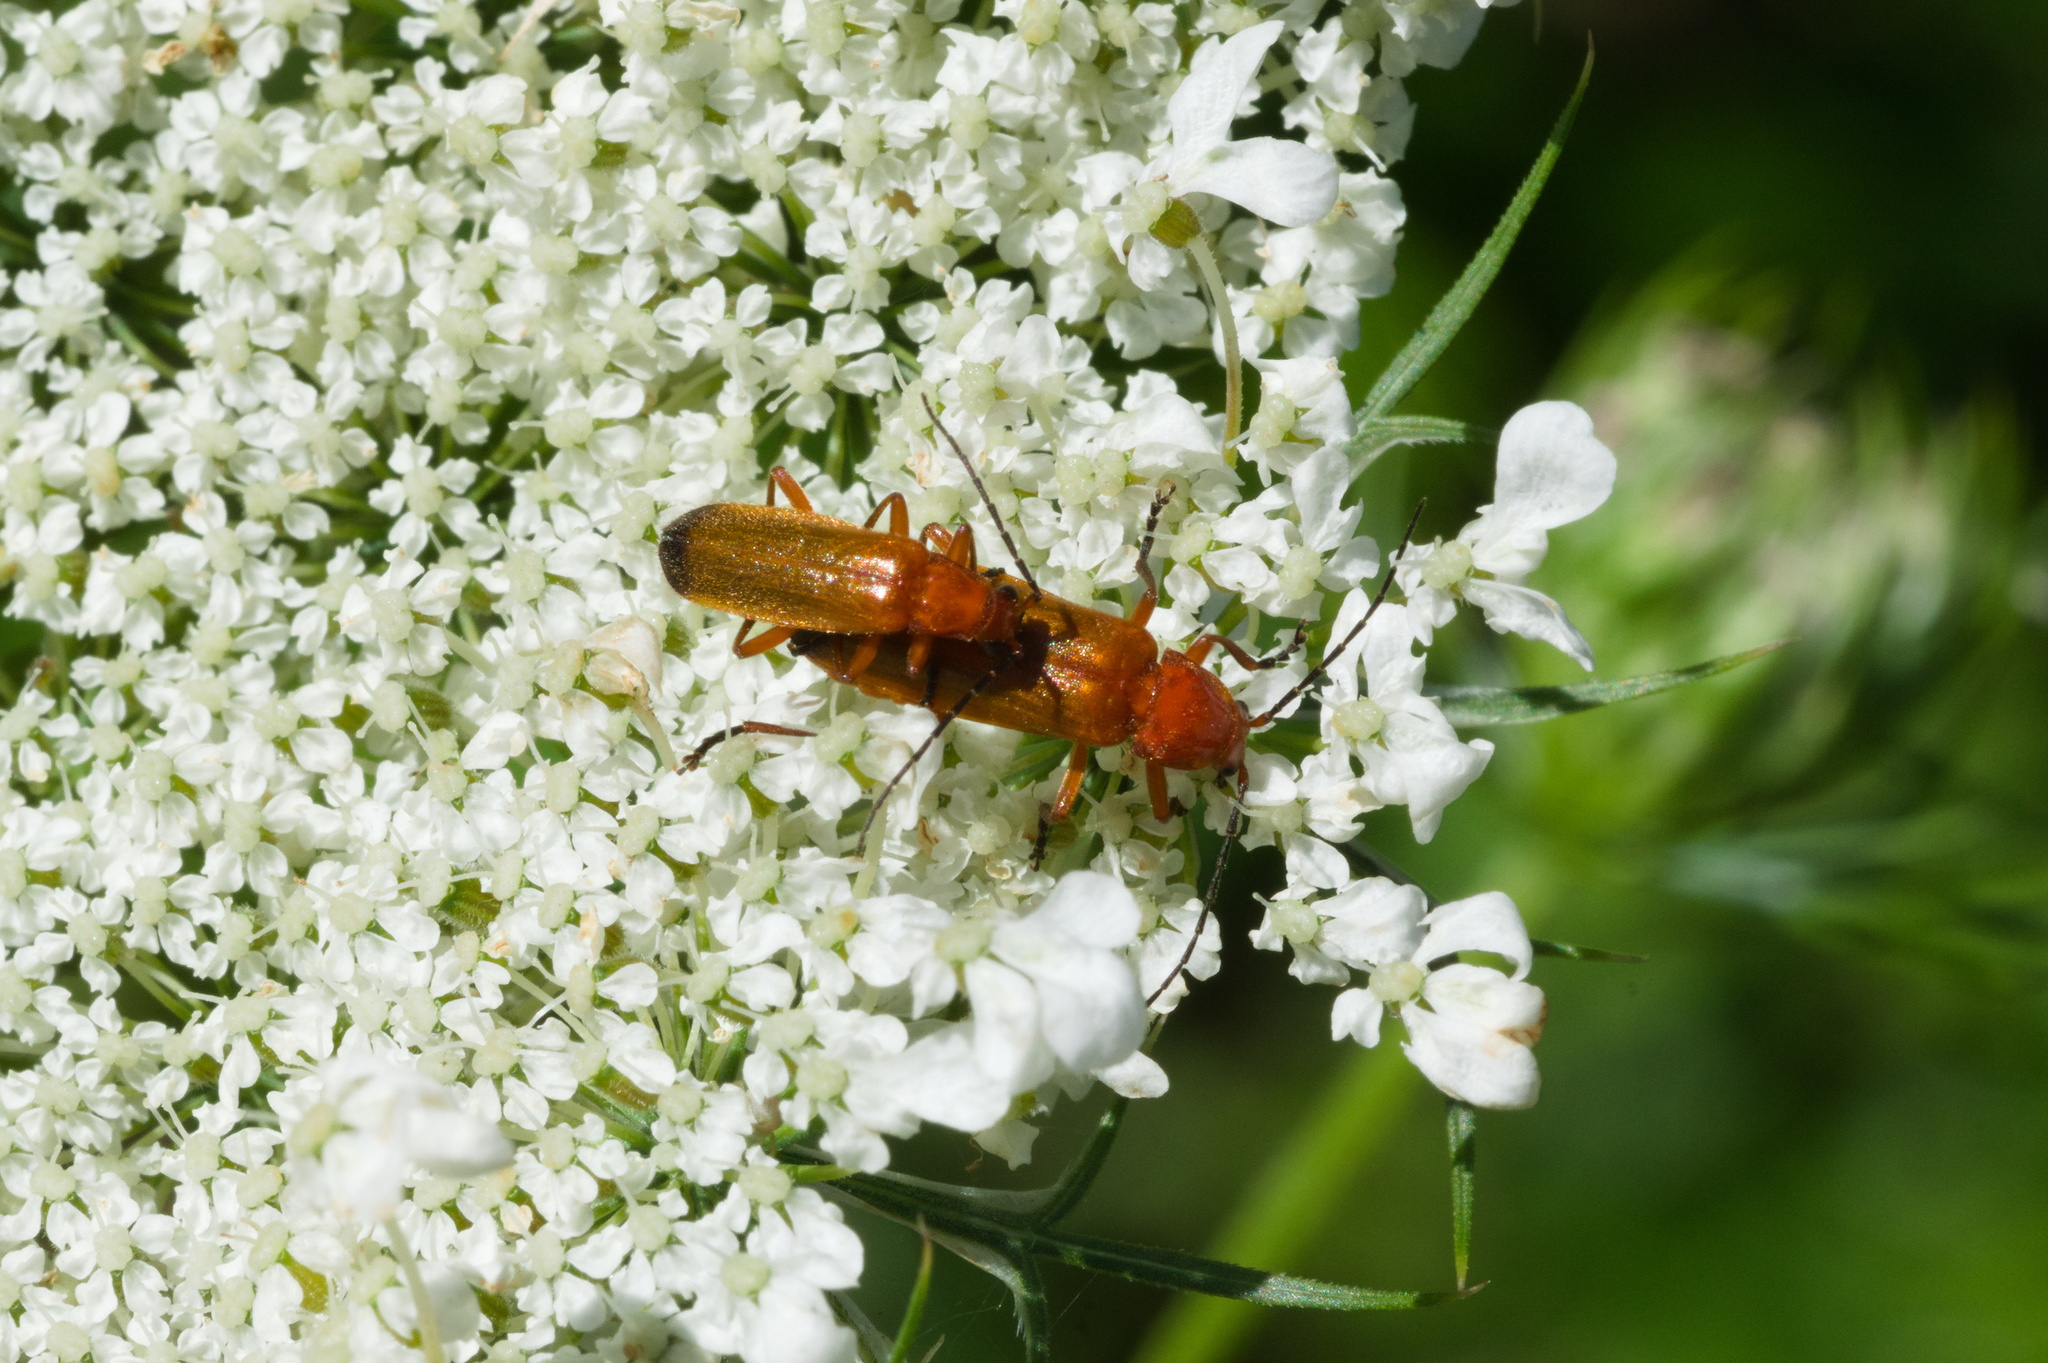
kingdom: Animalia
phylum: Arthropoda
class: Insecta
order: Coleoptera
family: Cantharidae
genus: Rhagonycha
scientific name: Rhagonycha fulva
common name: Common red soldier beetle
